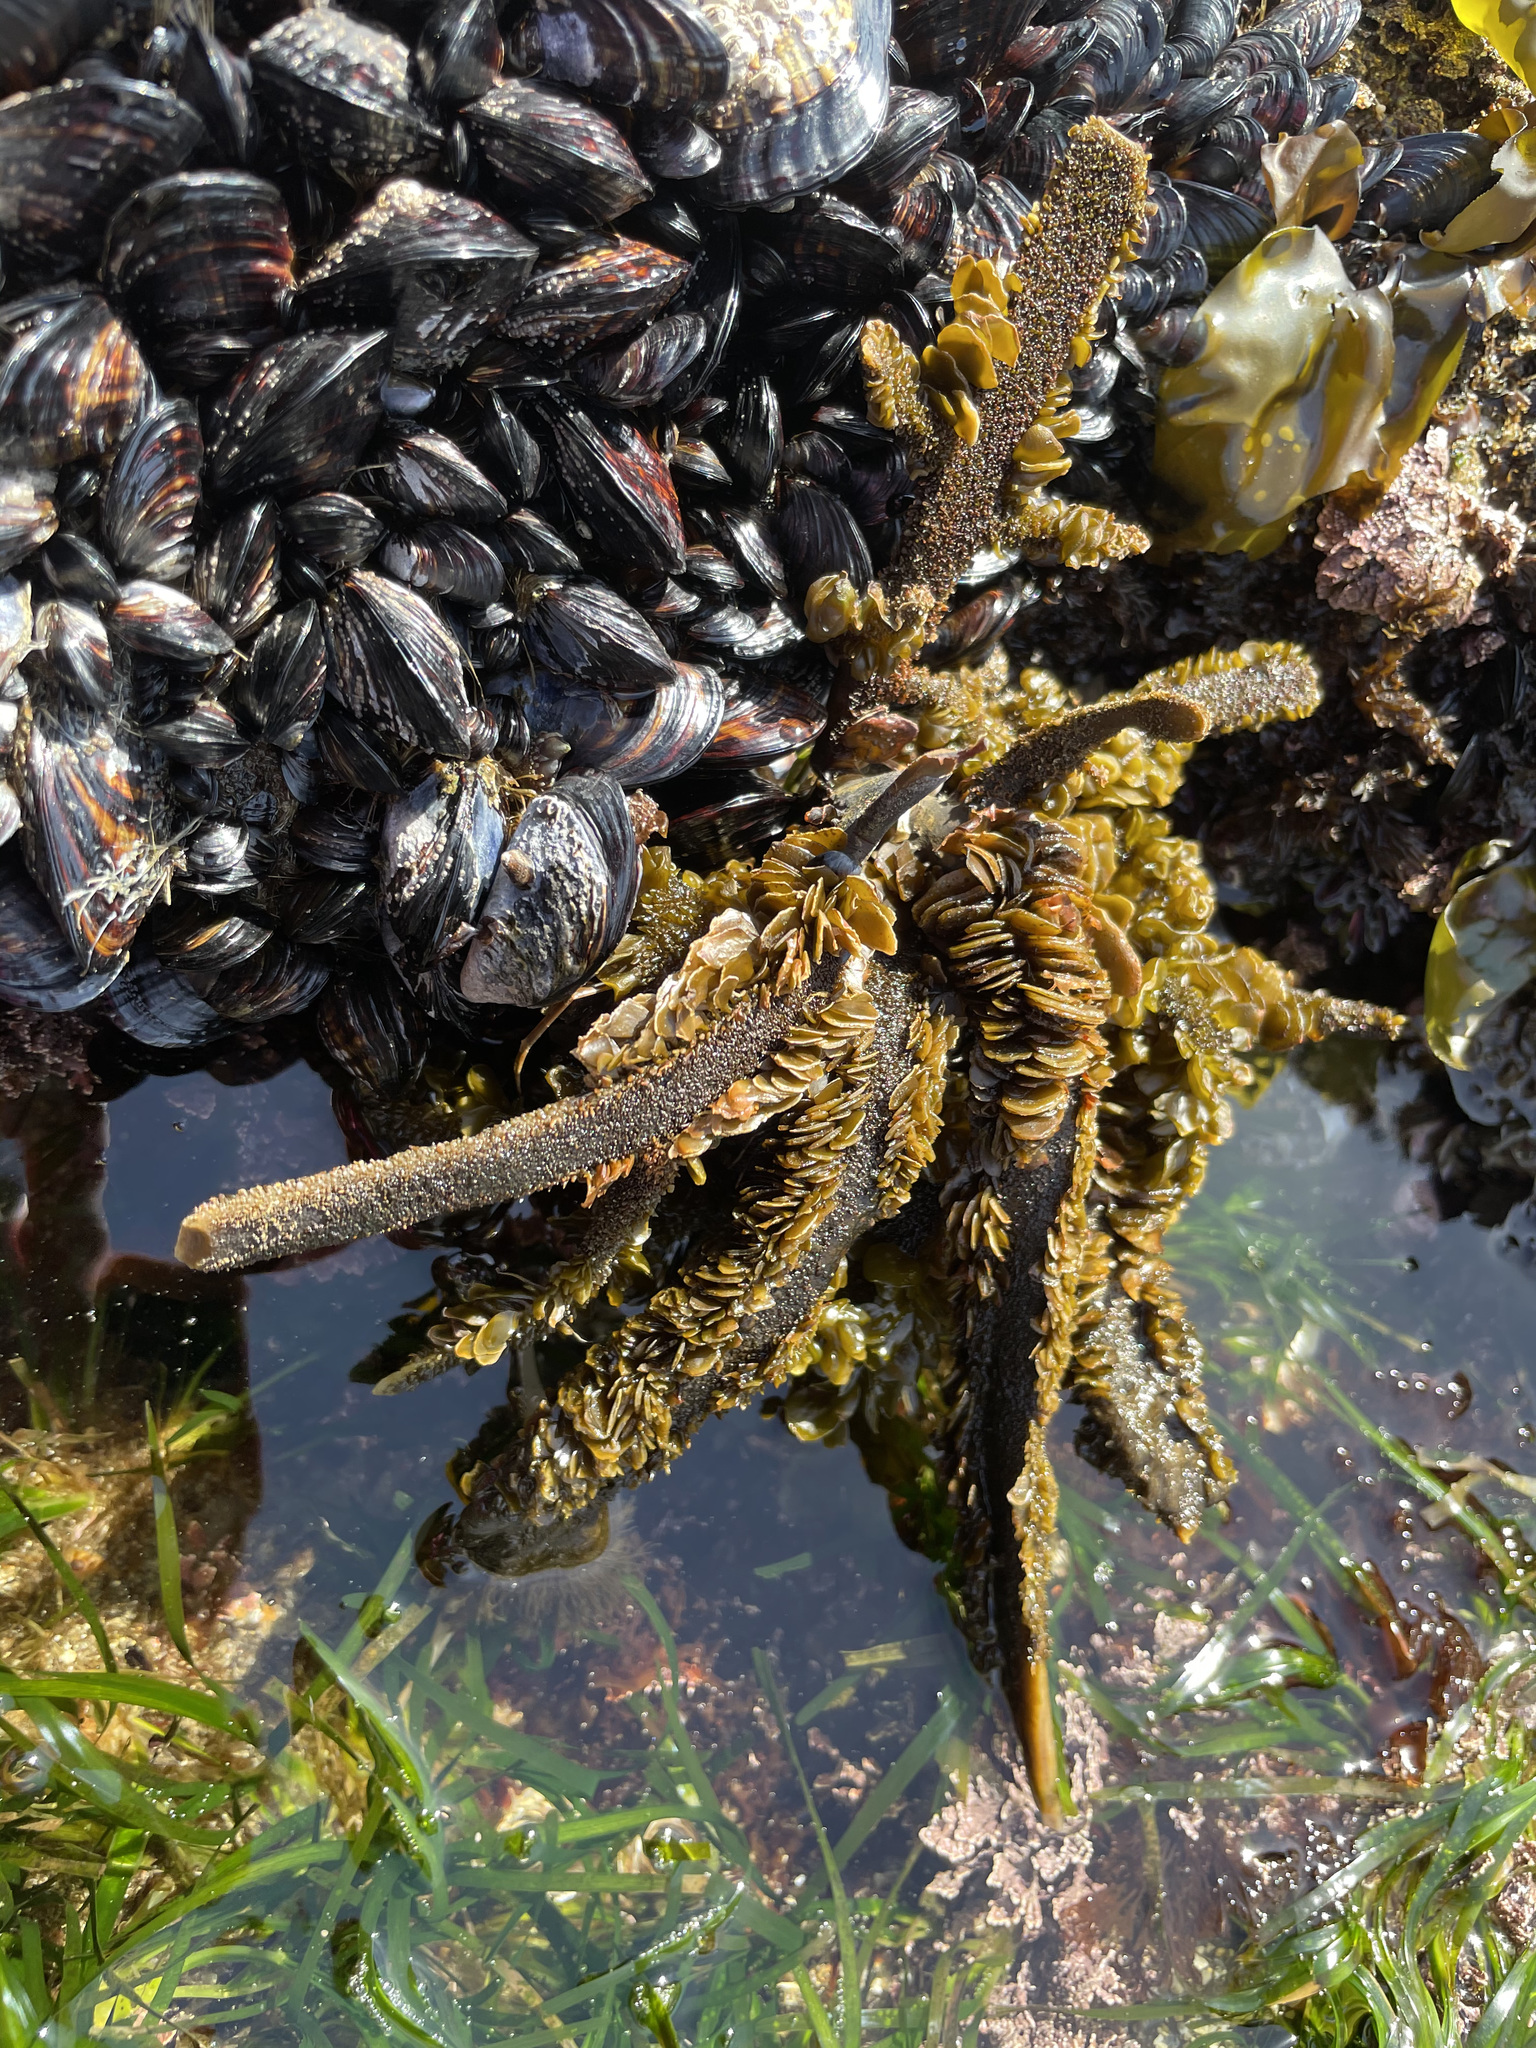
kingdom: Chromista
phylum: Ochrophyta
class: Phaeophyceae
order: Laminariales
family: Lessoniaceae
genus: Egregia
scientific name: Egregia menziesii
